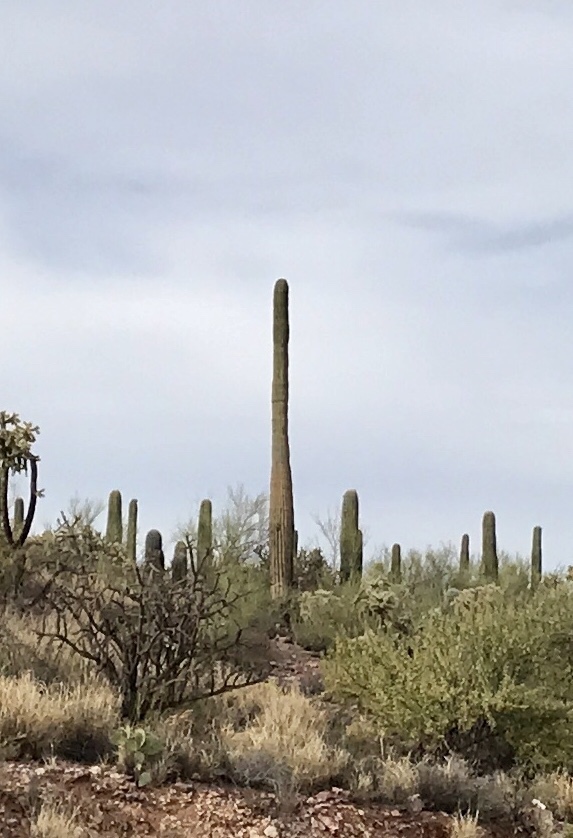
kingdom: Plantae
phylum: Tracheophyta
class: Magnoliopsida
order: Caryophyllales
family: Cactaceae
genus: Carnegiea
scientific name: Carnegiea gigantea
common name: Saguaro
